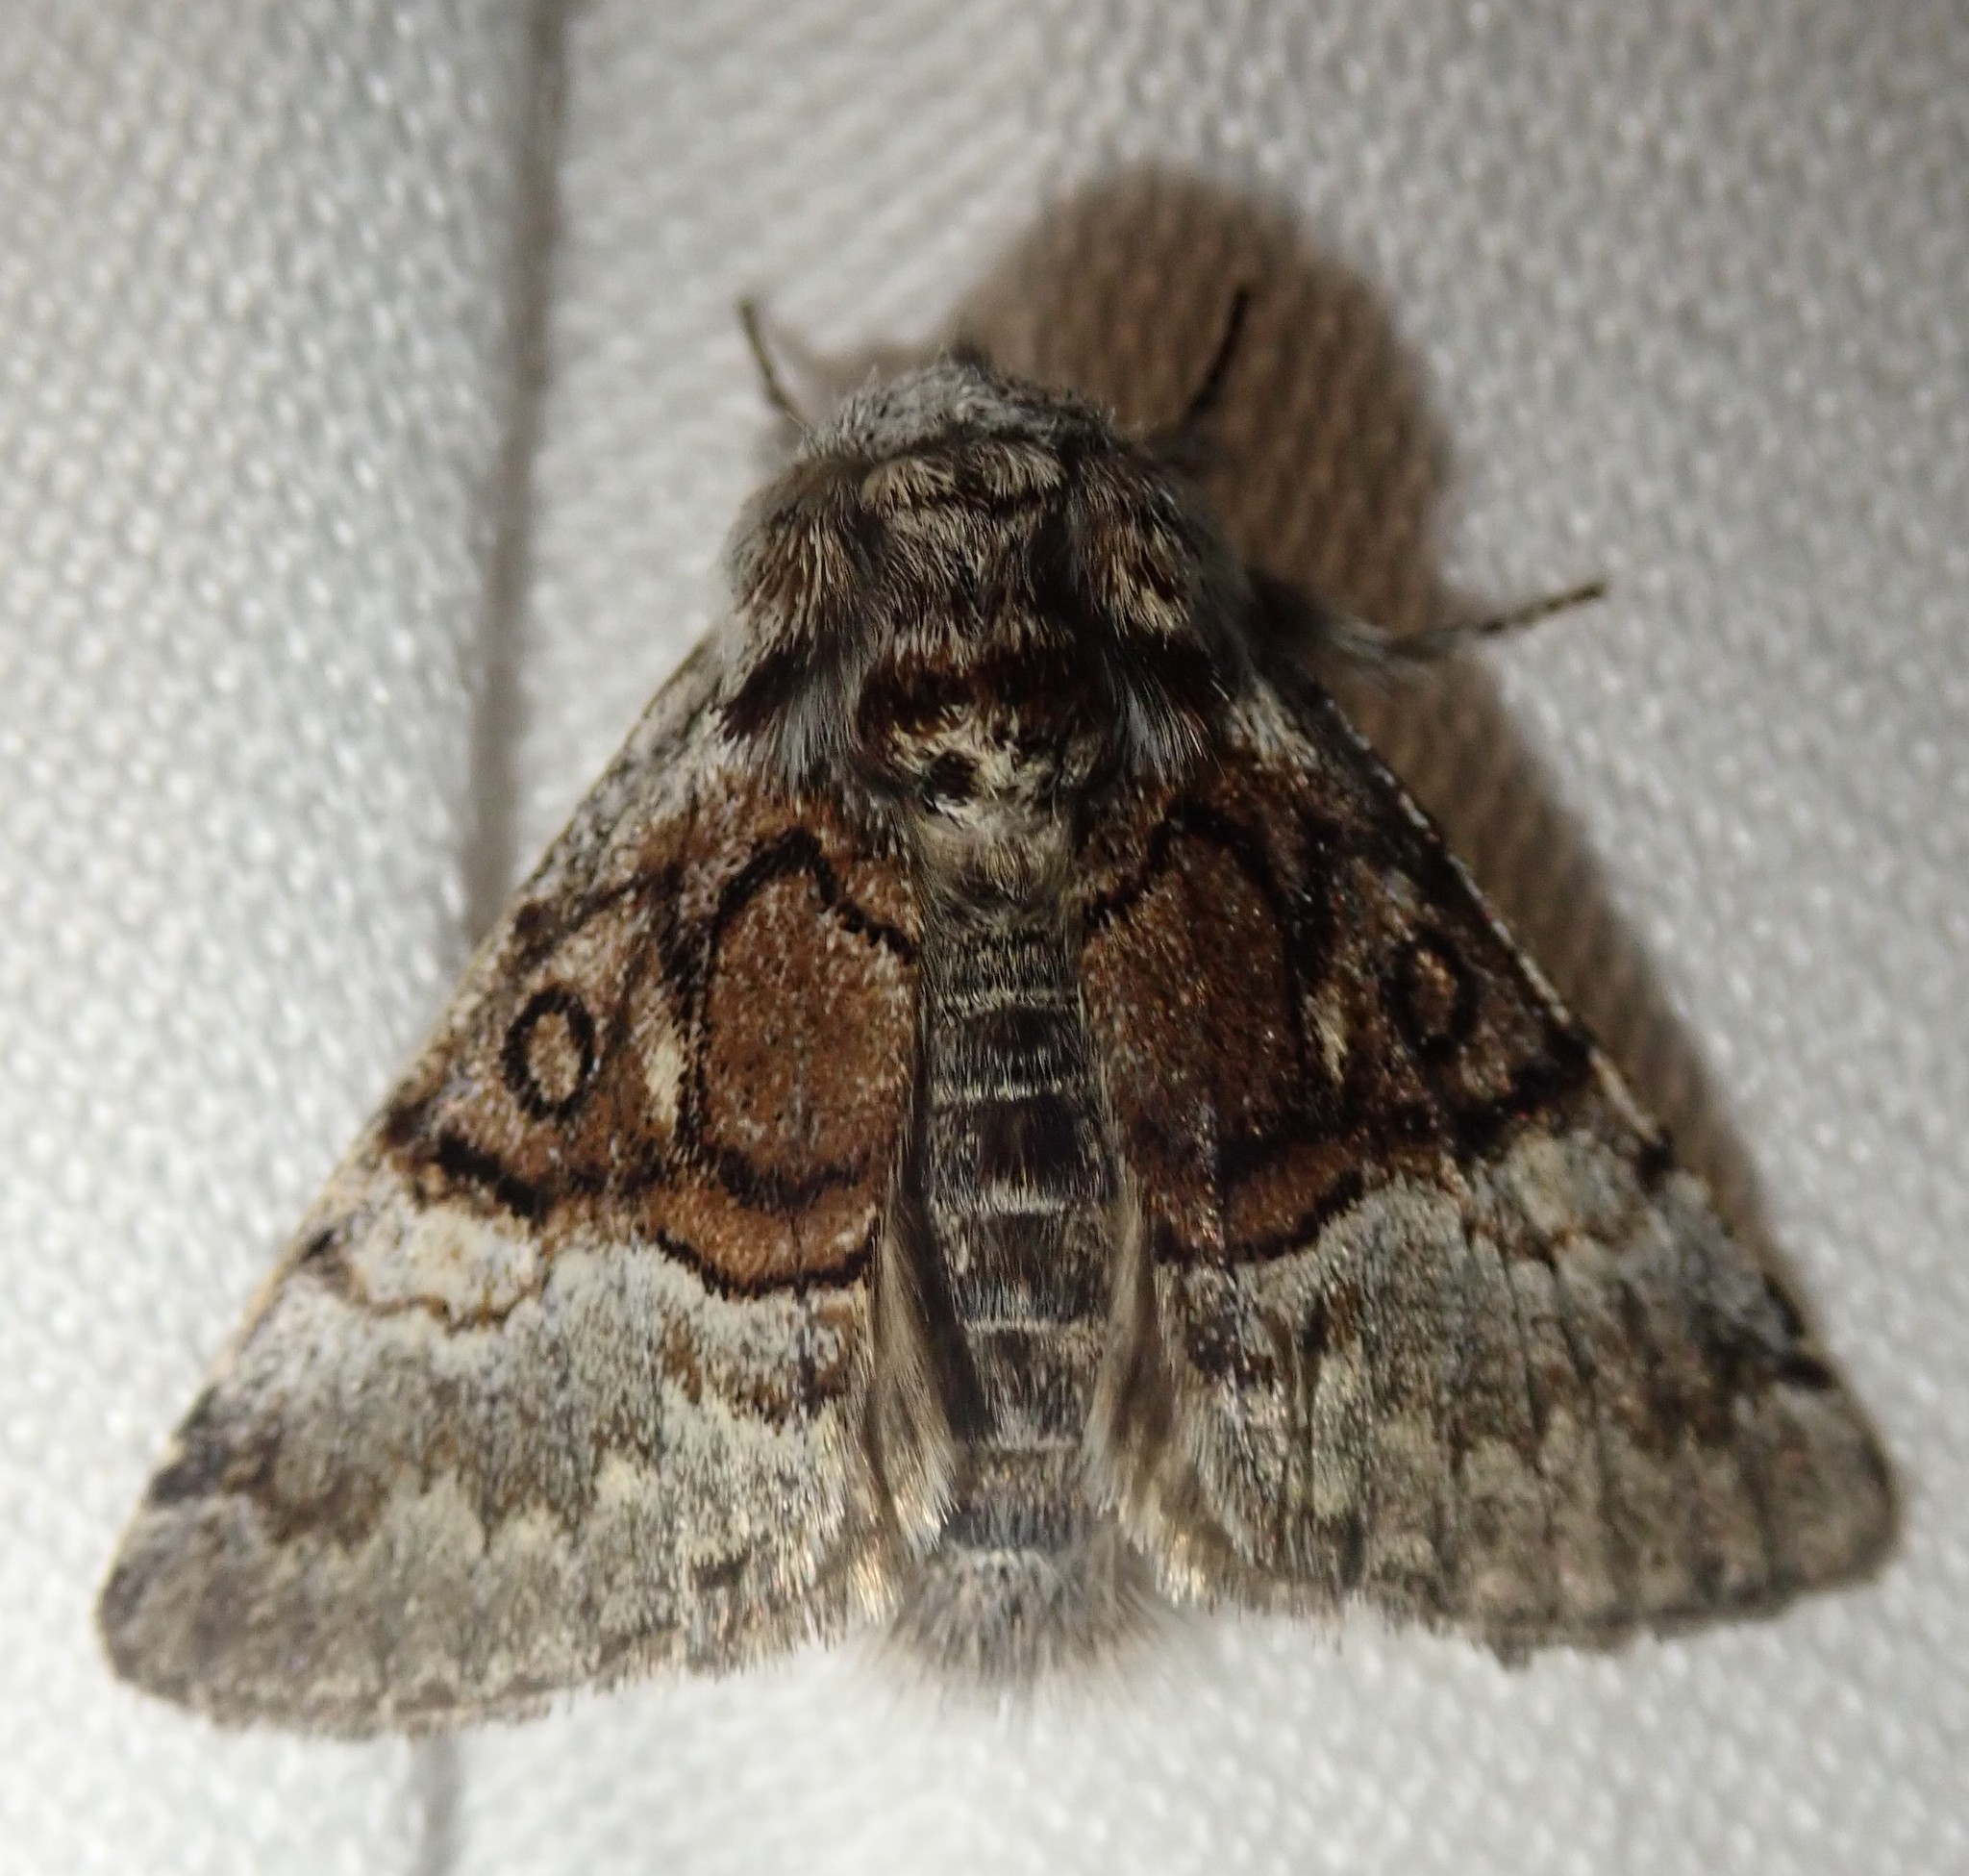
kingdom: Animalia
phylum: Arthropoda
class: Insecta
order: Lepidoptera
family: Noctuidae
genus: Colocasia
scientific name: Colocasia coryli
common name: Nut-tree tussock
